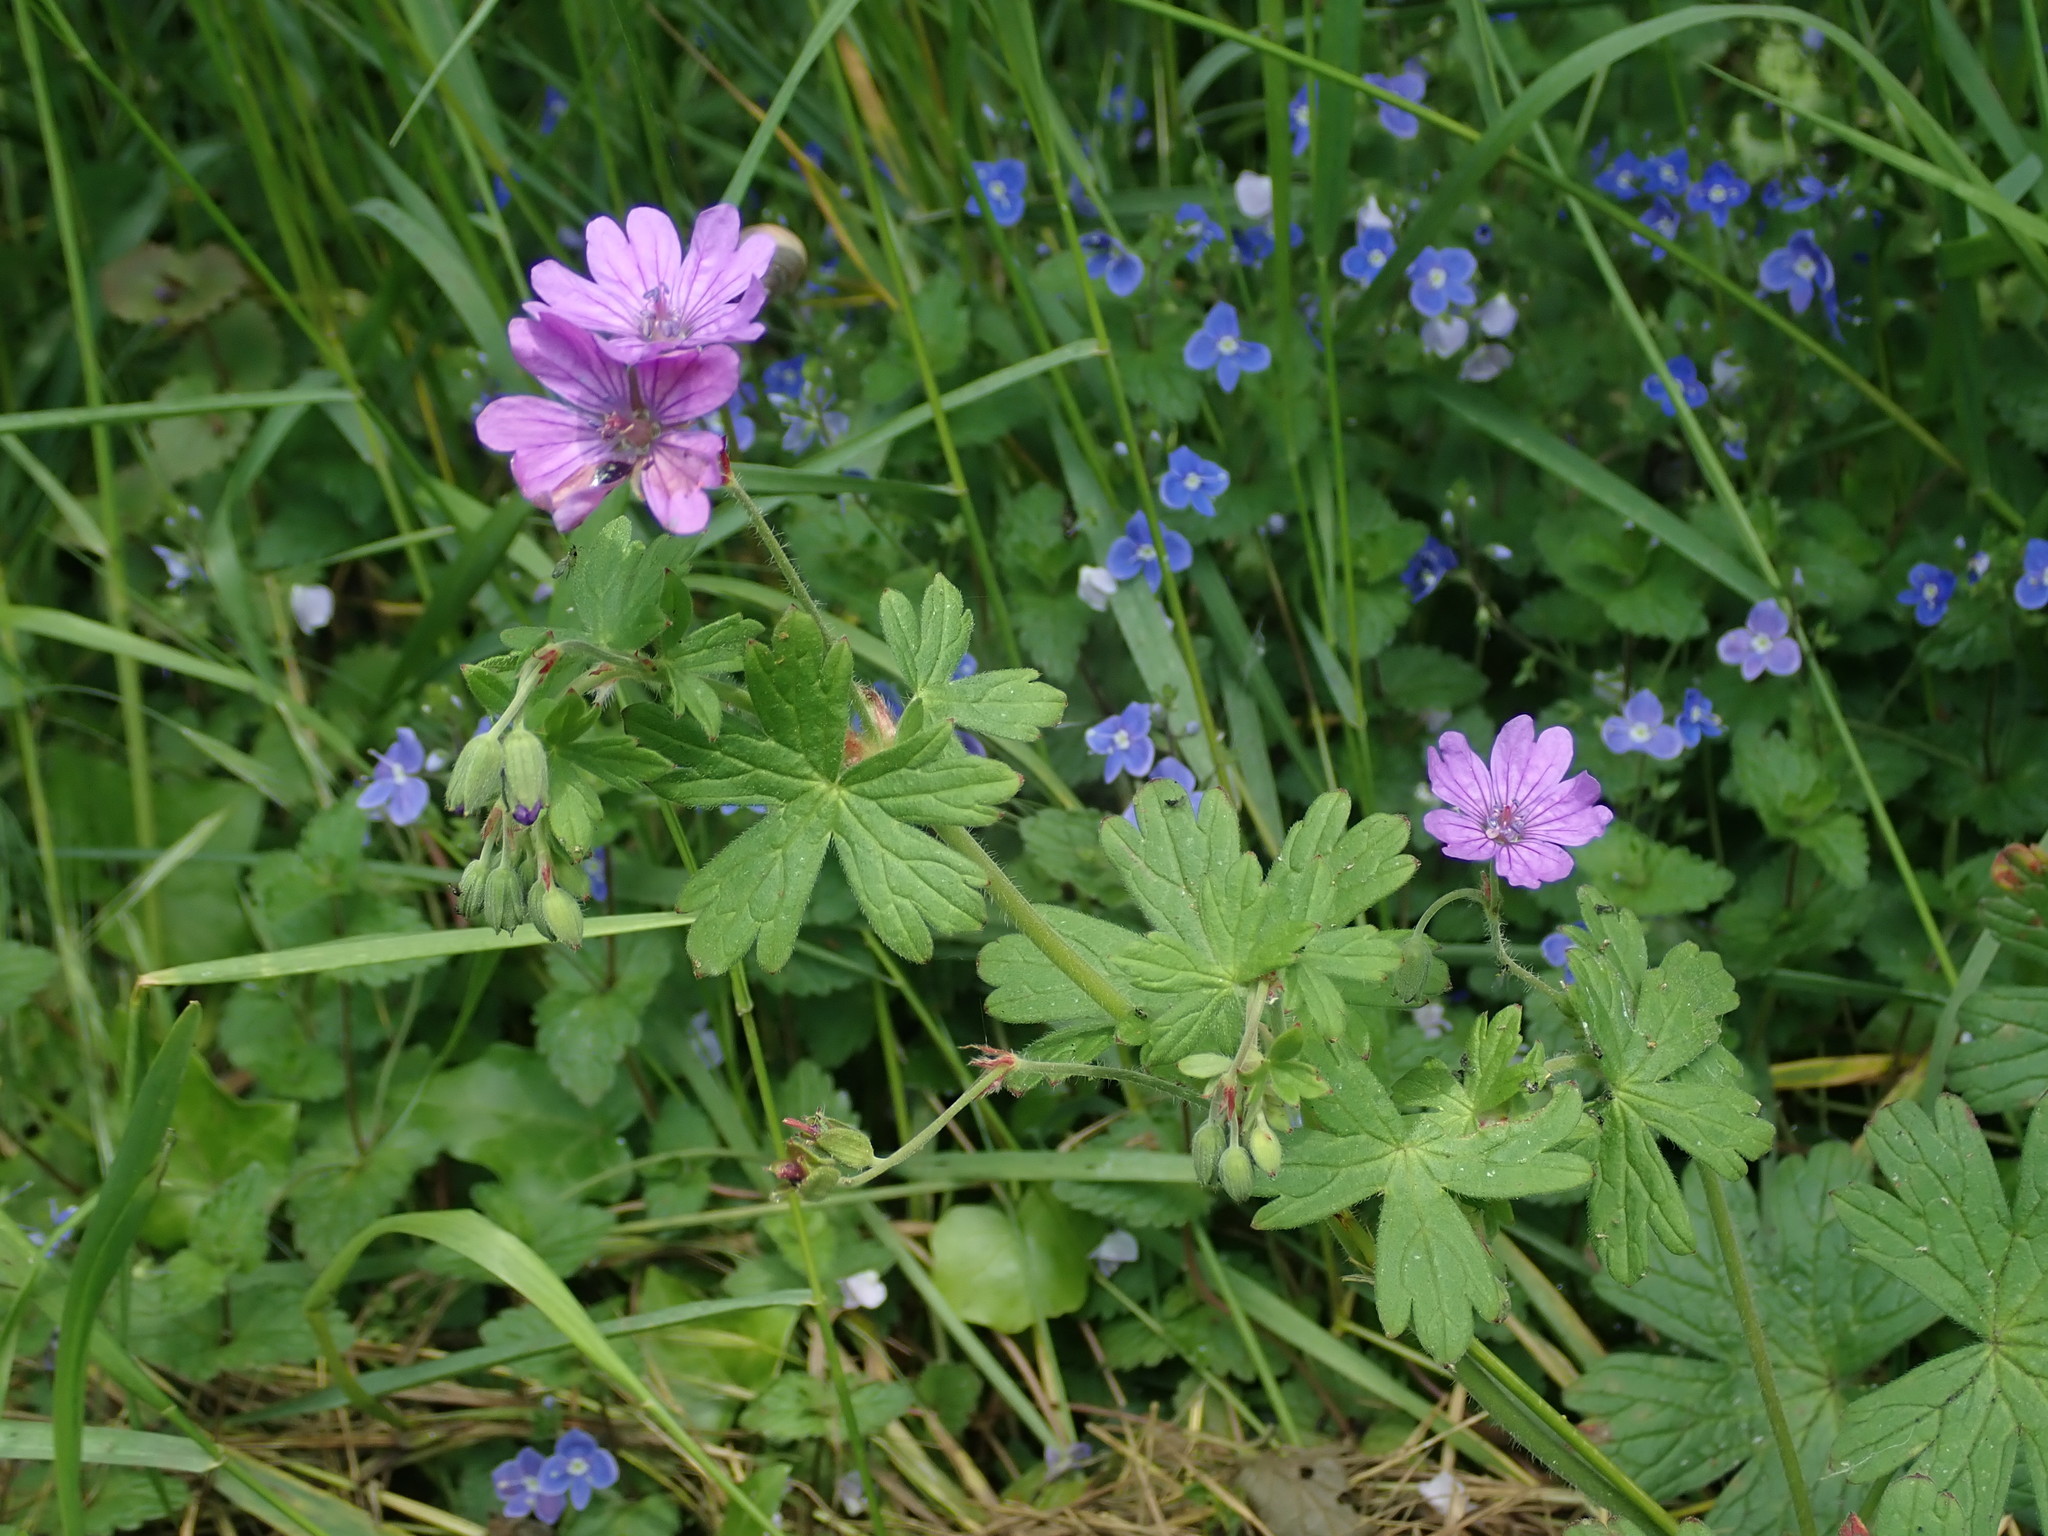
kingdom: Plantae
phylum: Tracheophyta
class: Magnoliopsida
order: Geraniales
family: Geraniaceae
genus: Geranium
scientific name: Geranium pyrenaicum
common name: Hedgerow crane's-bill
